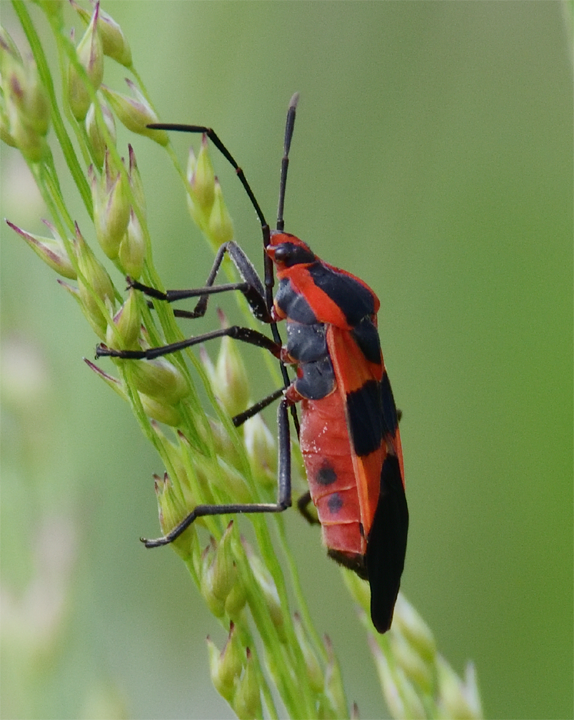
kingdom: Animalia
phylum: Arthropoda
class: Insecta
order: Hemiptera
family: Lygaeidae
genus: Oncopeltus
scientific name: Oncopeltus fasciatus
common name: Large milkweed bug
